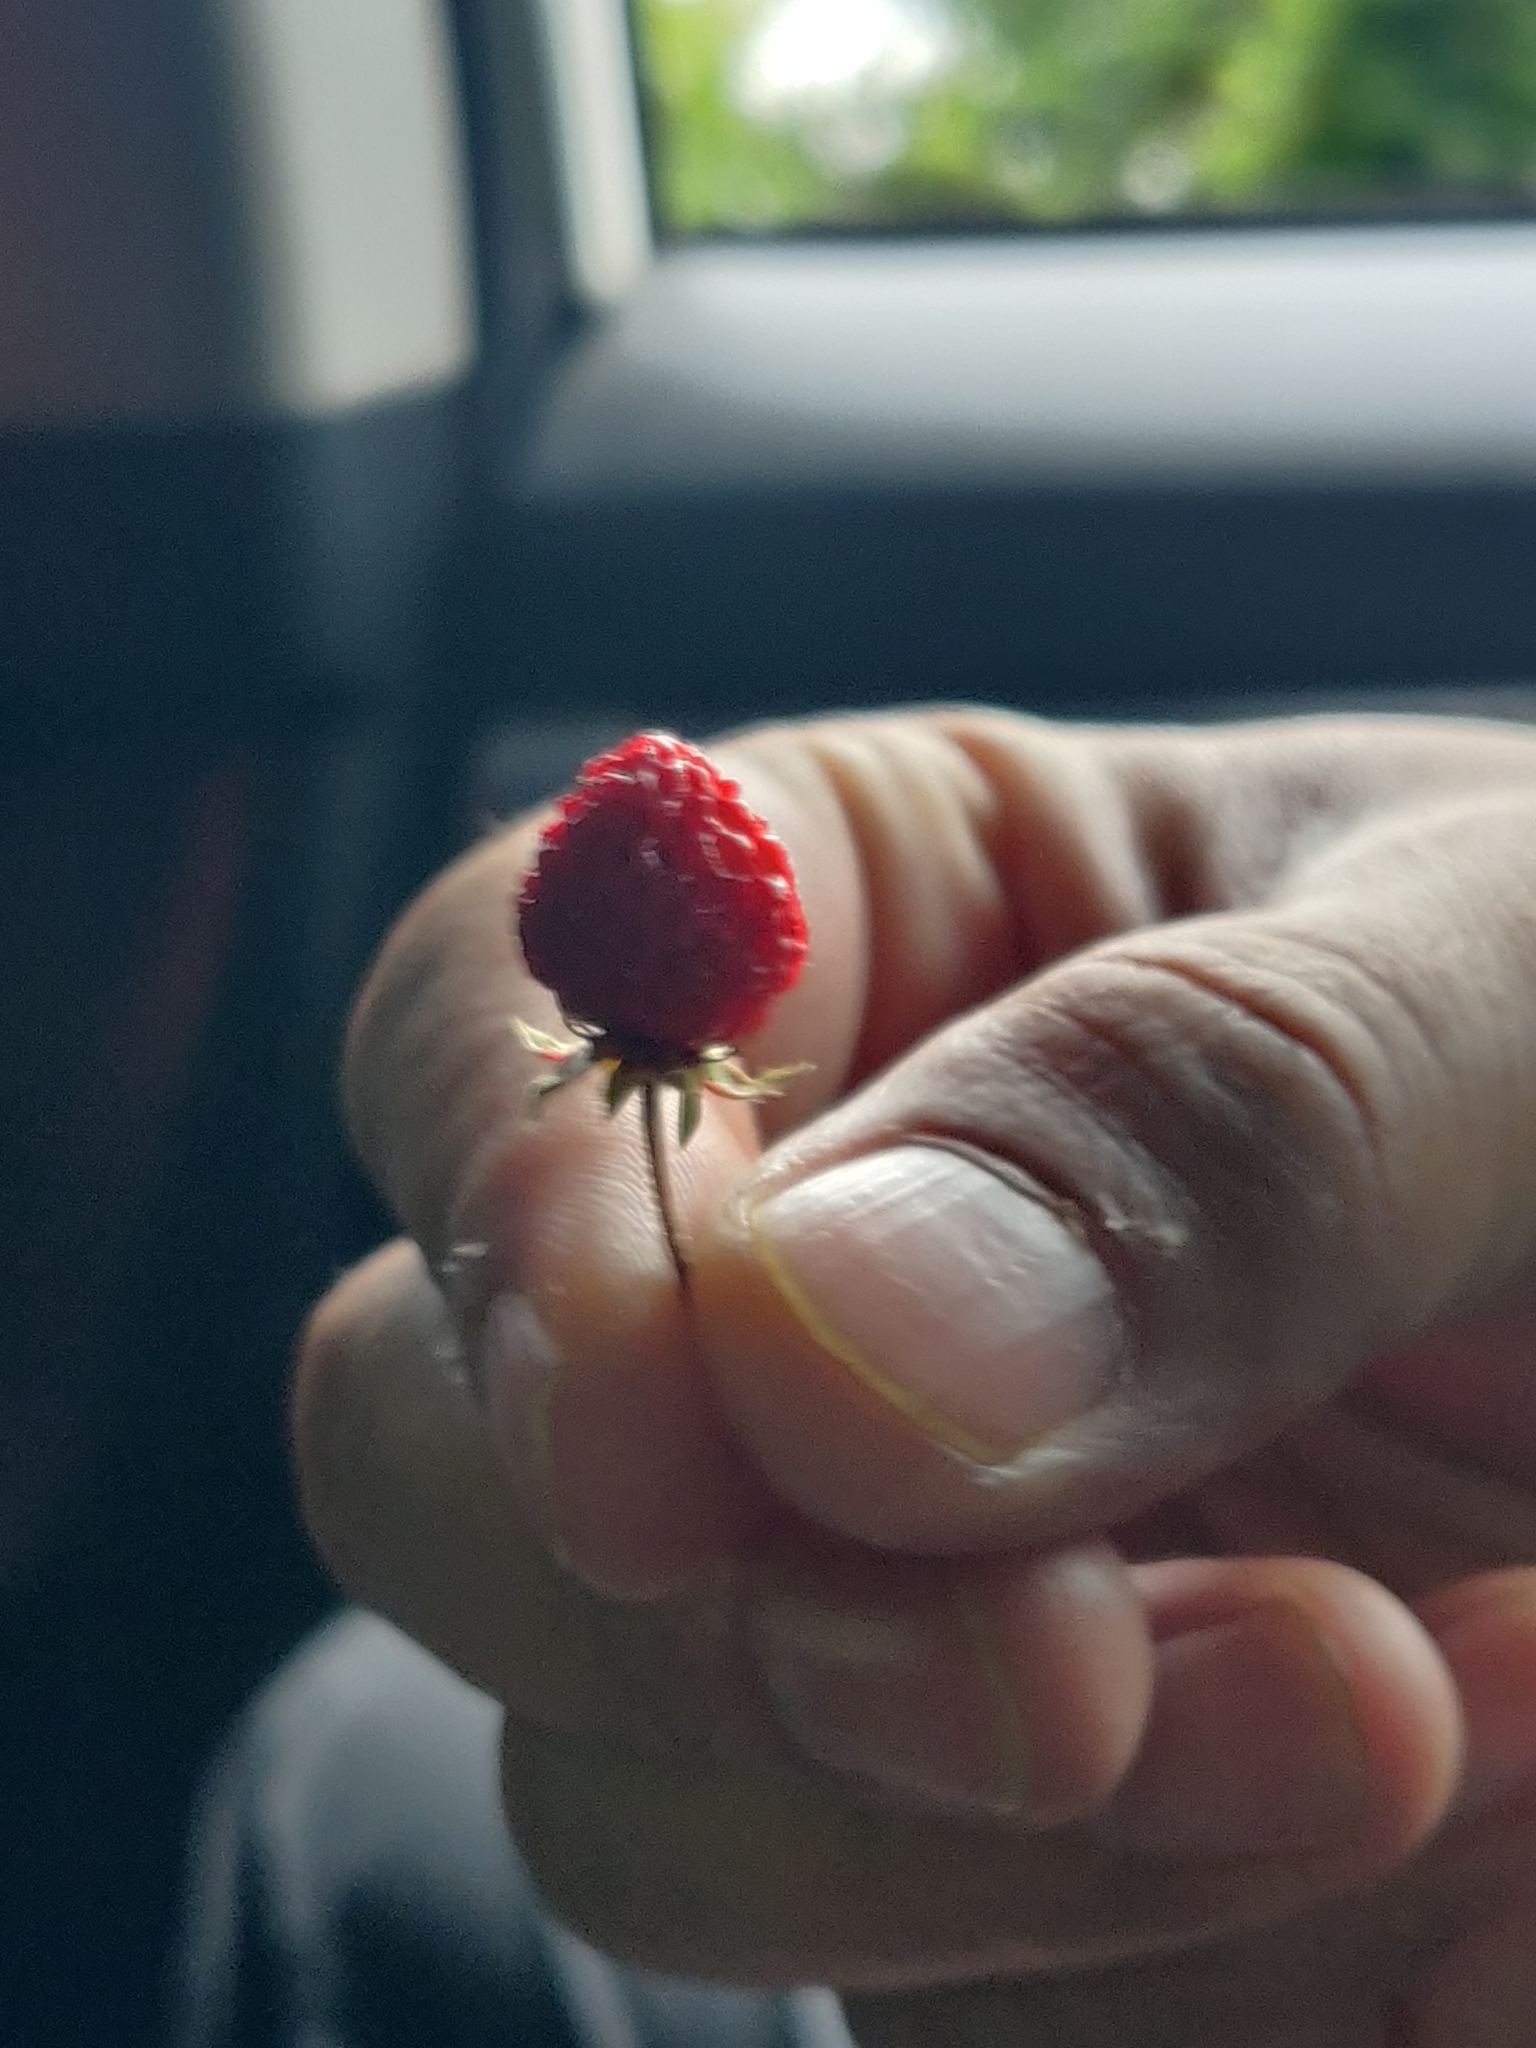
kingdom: Plantae
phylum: Tracheophyta
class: Magnoliopsida
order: Rosales
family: Rosaceae
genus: Potentilla
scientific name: Potentilla indica
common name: Yellow-flowered strawberry
